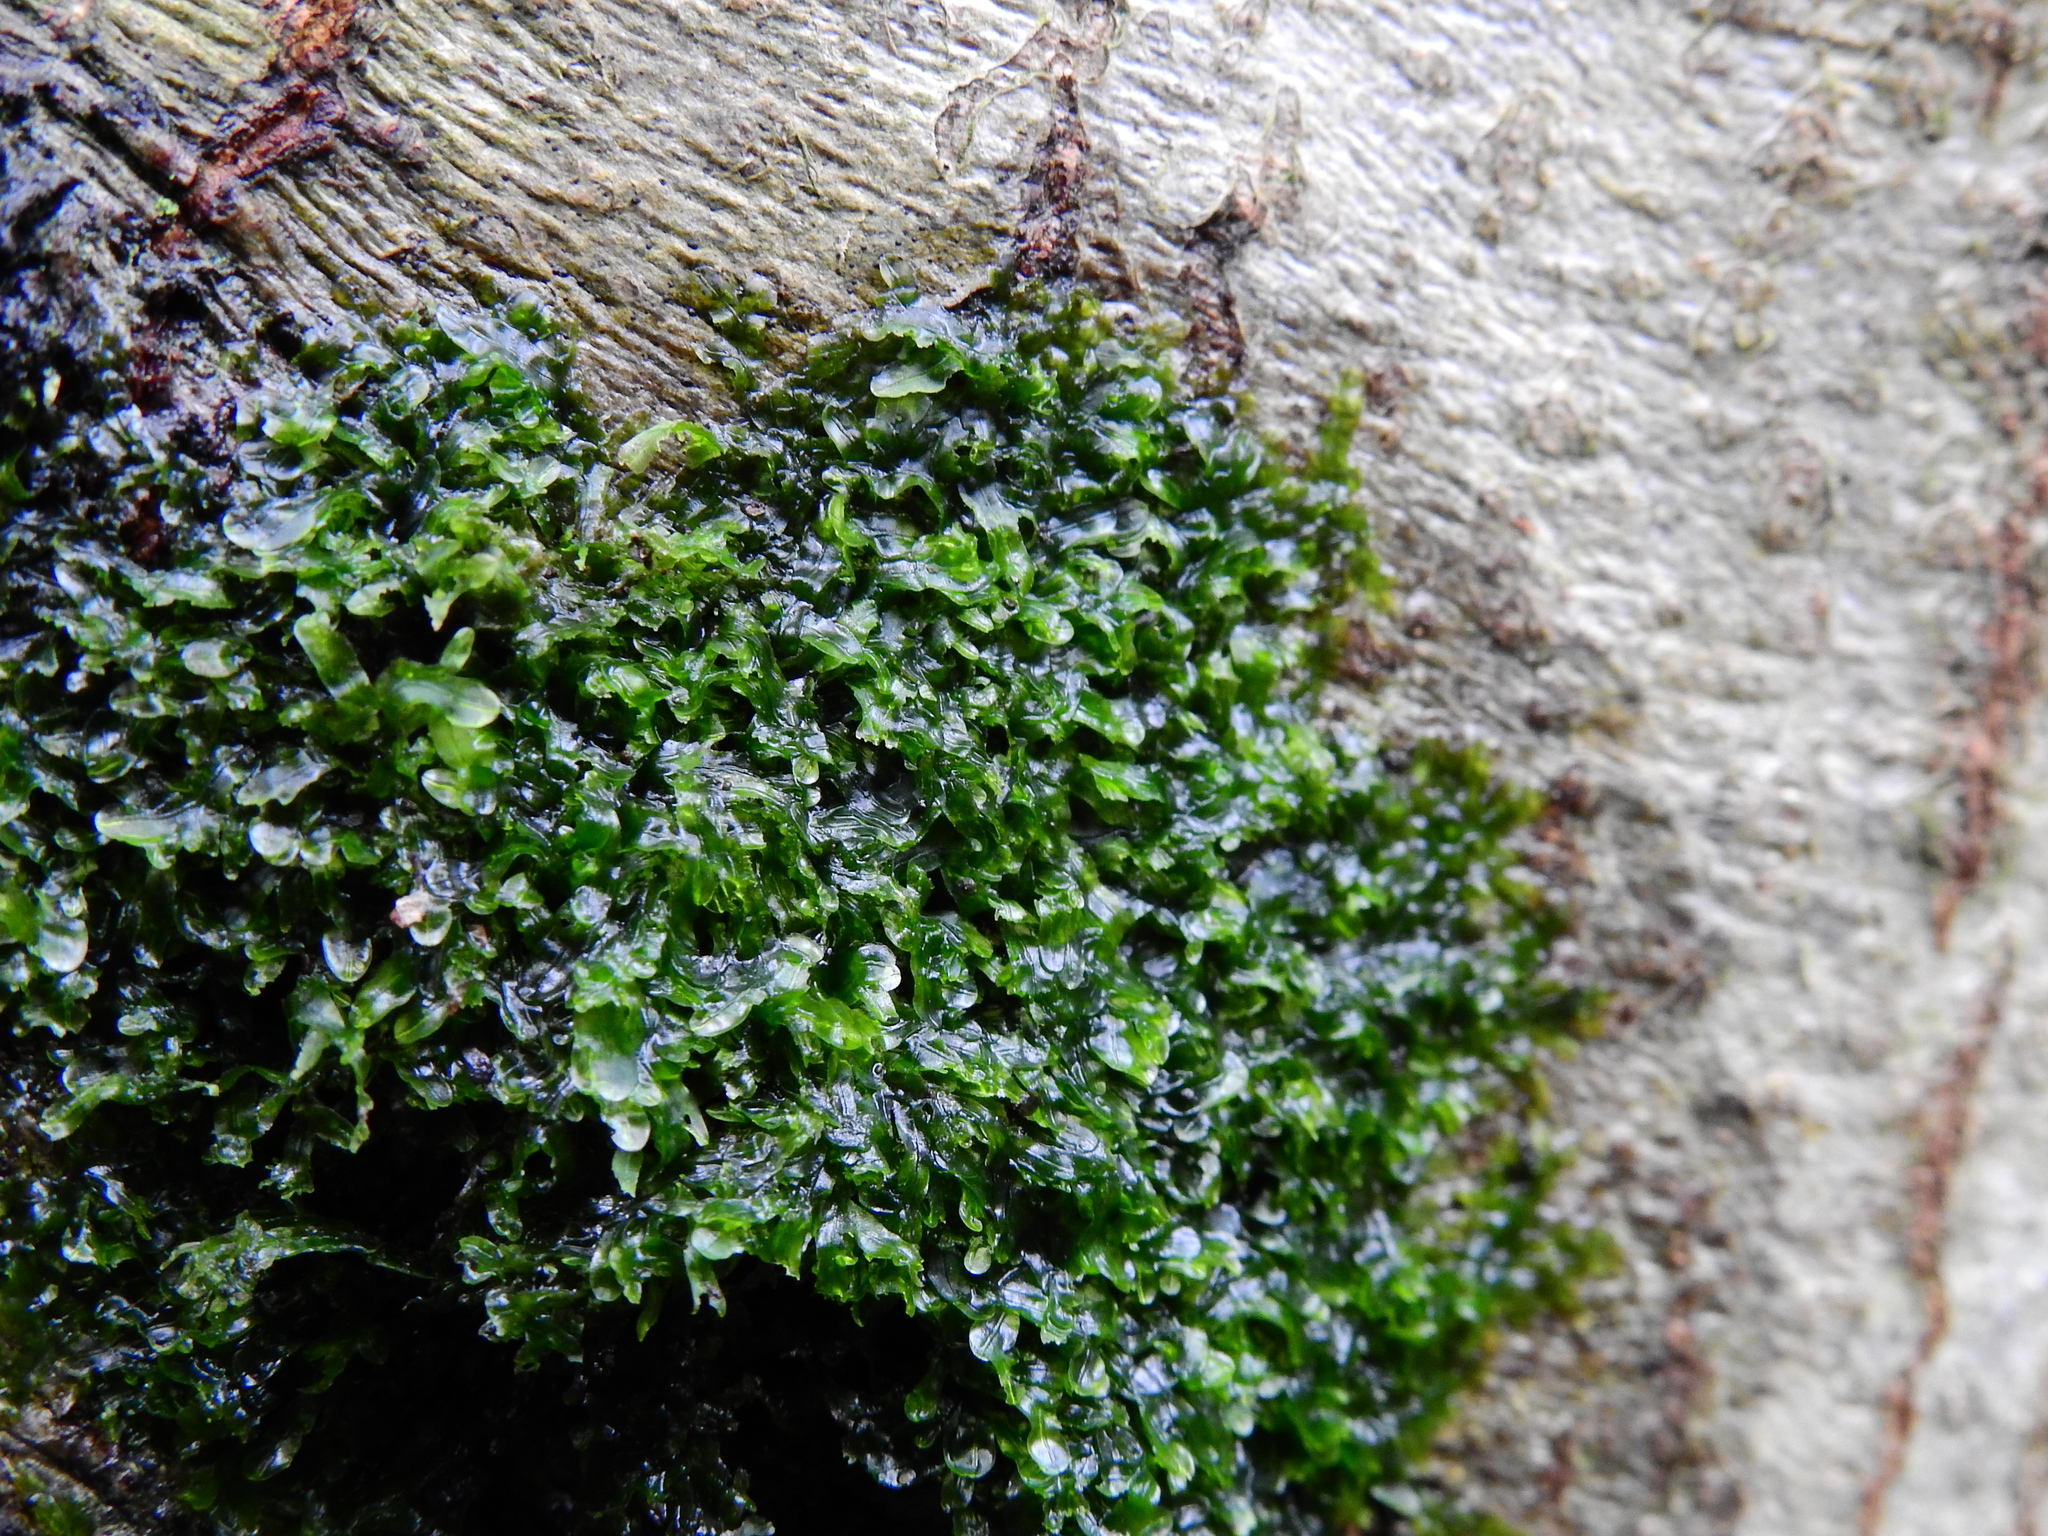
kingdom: Plantae
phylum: Marchantiophyta
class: Jungermanniopsida
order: Metzgeriales
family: Metzgeriaceae
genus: Metzgeria
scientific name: Metzgeria furcata
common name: Forked veilwort
